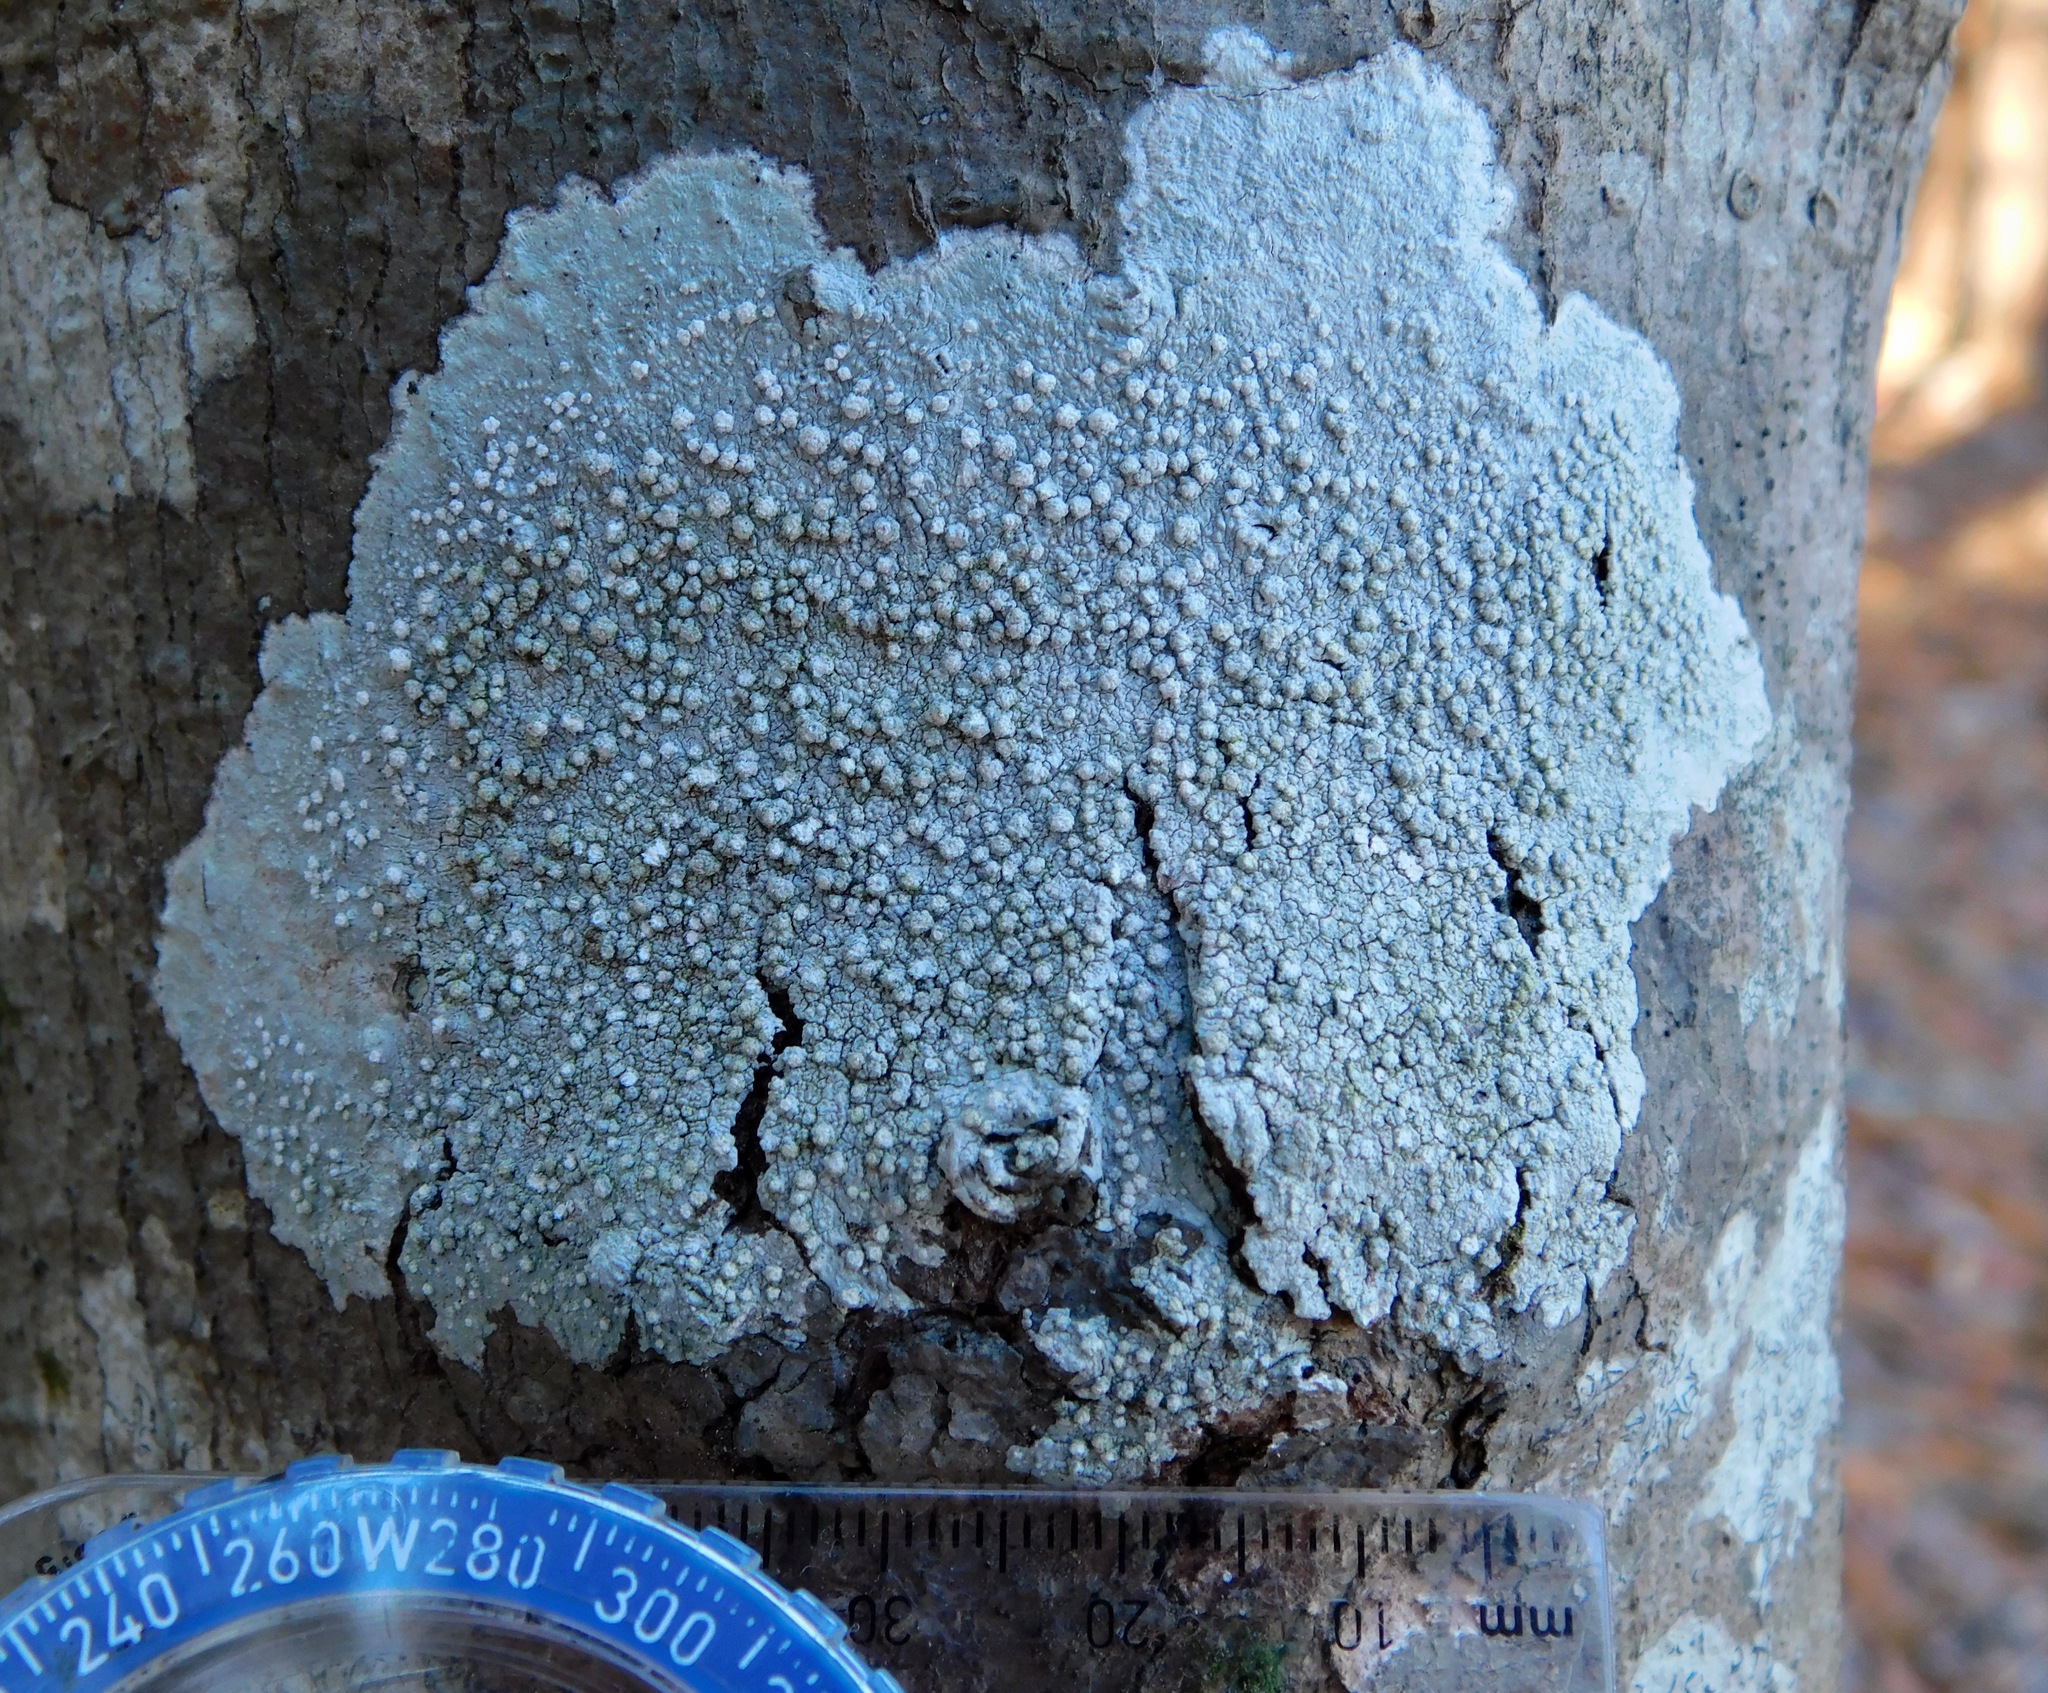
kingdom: Fungi
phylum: Ascomycota
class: Lecanoromycetes
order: Pertusariales
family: Pertusariaceae
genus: Lepra
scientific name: Lepra trachythallina
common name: Powdered wart lichen
